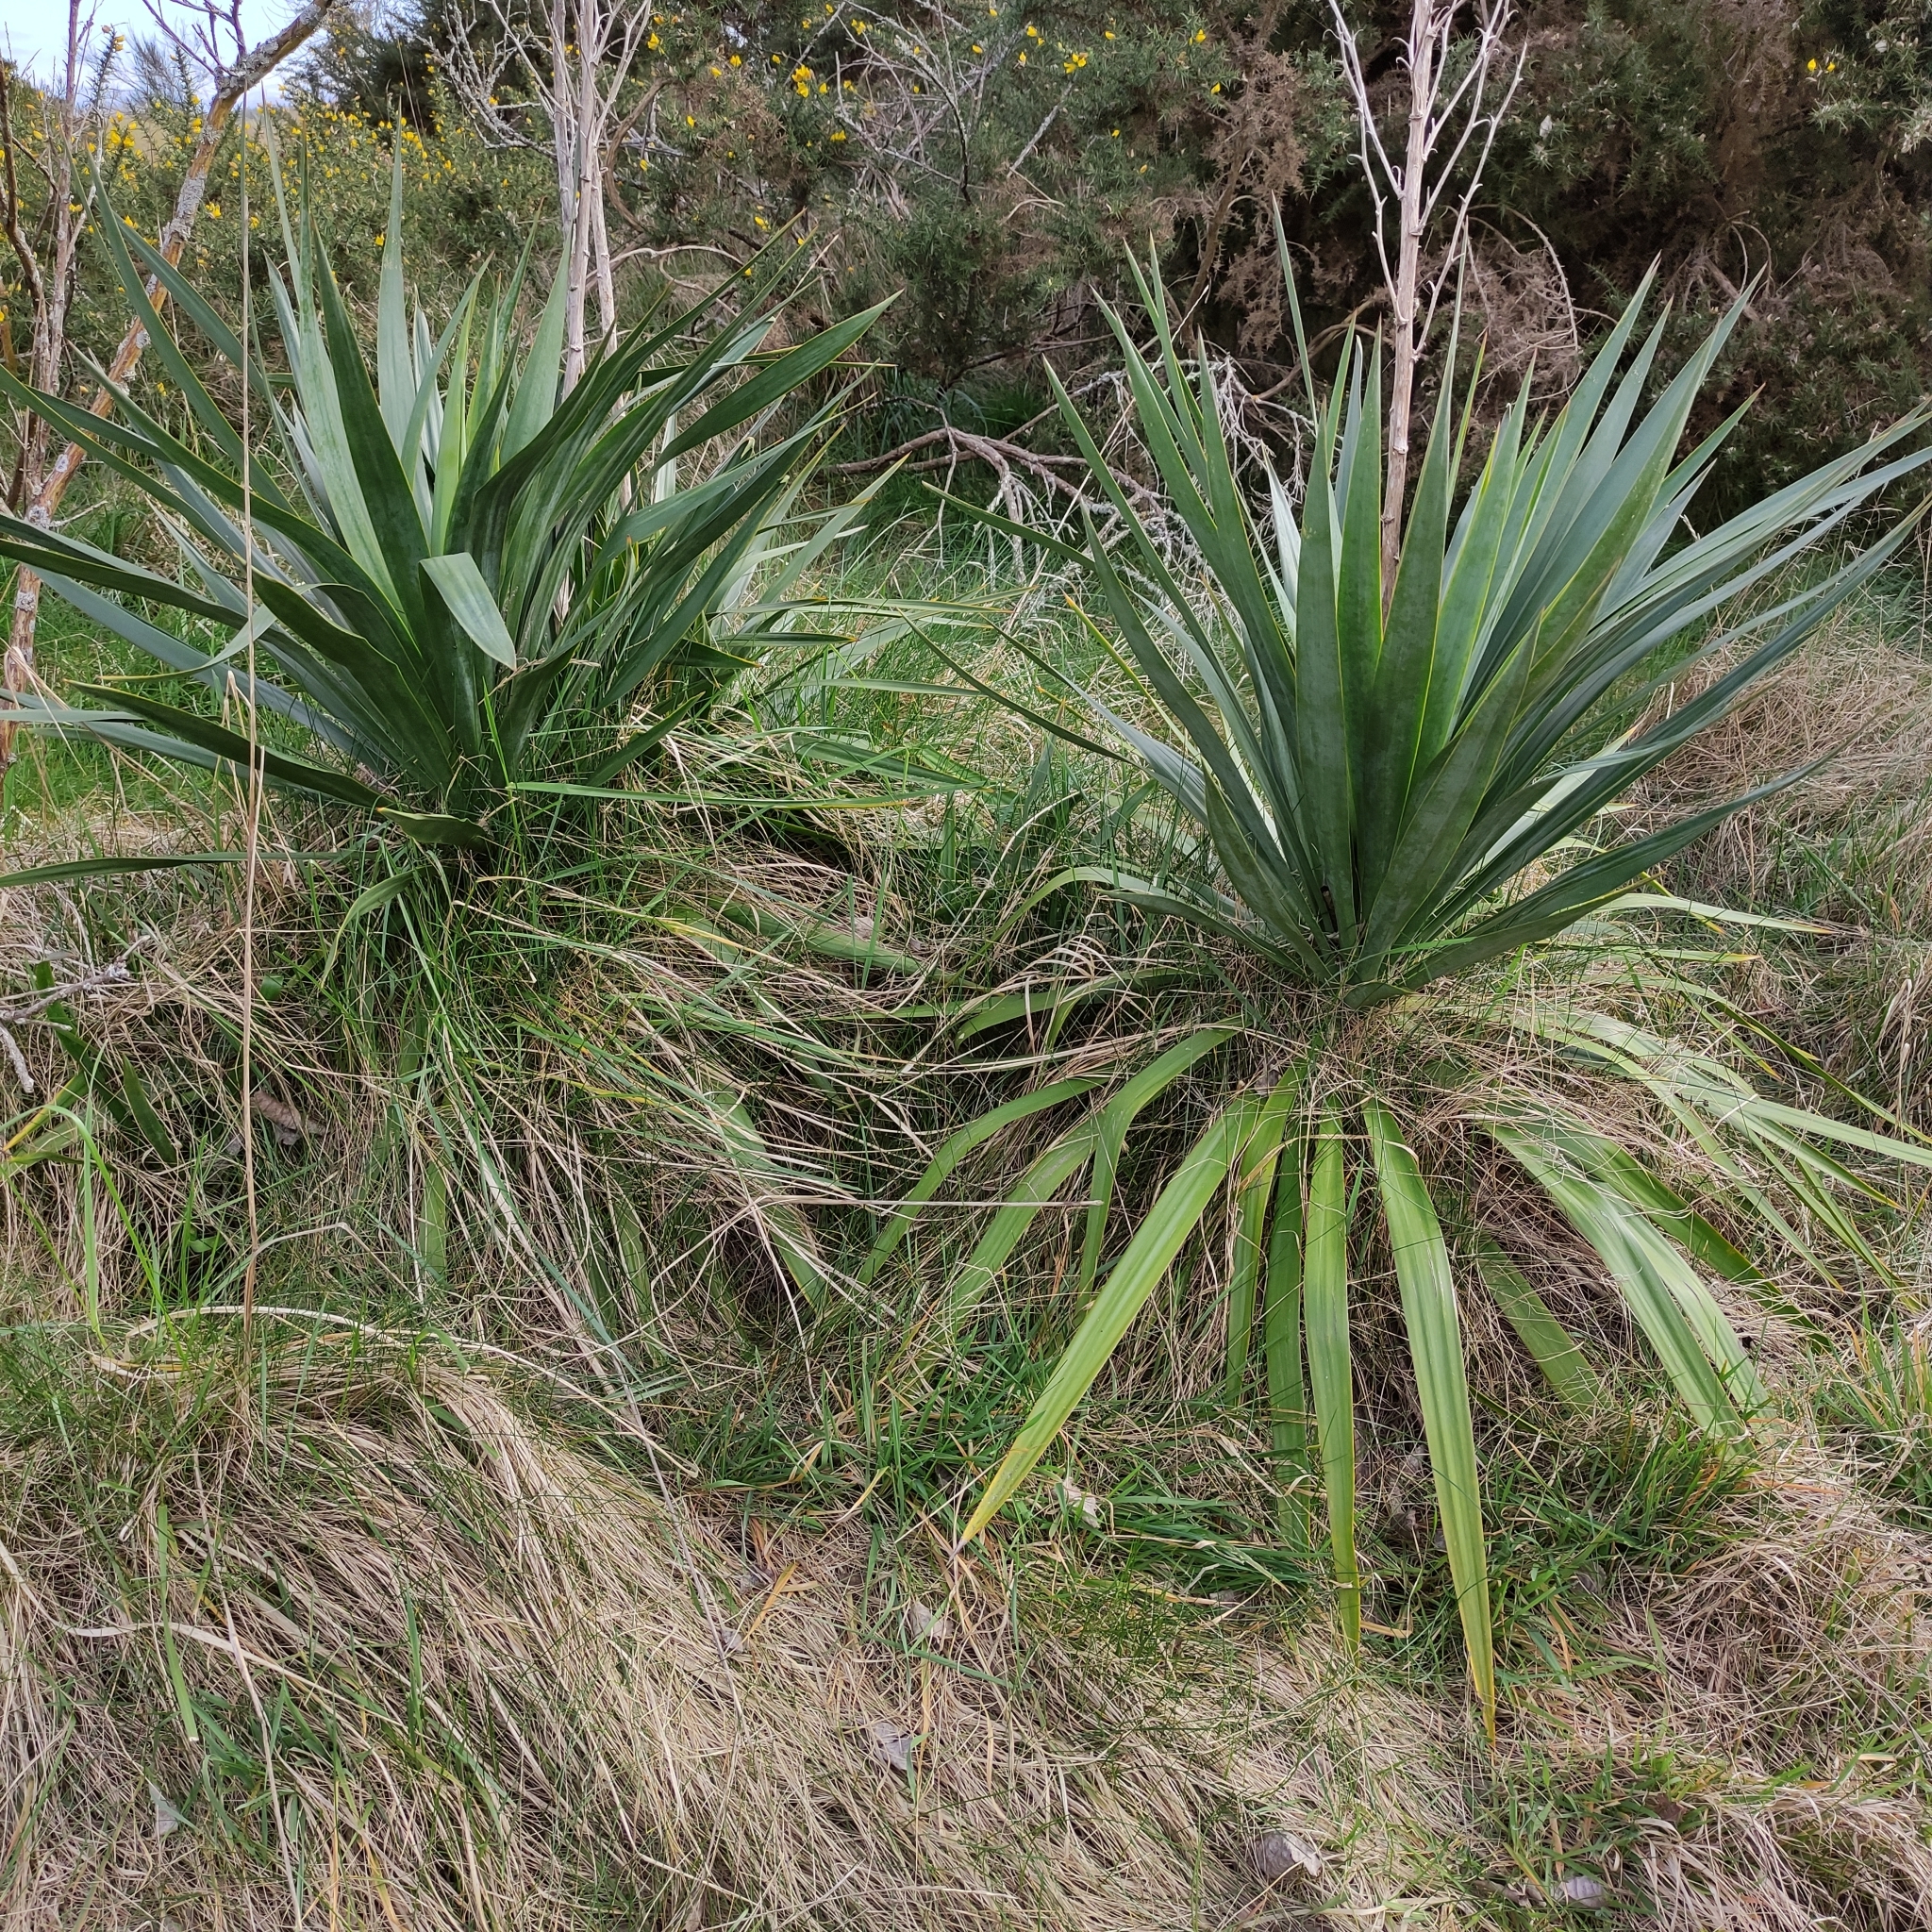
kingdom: Plantae
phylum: Tracheophyta
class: Liliopsida
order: Asparagales
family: Asparagaceae
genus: Yucca
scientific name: Yucca gloriosa
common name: Spanish-dagger
